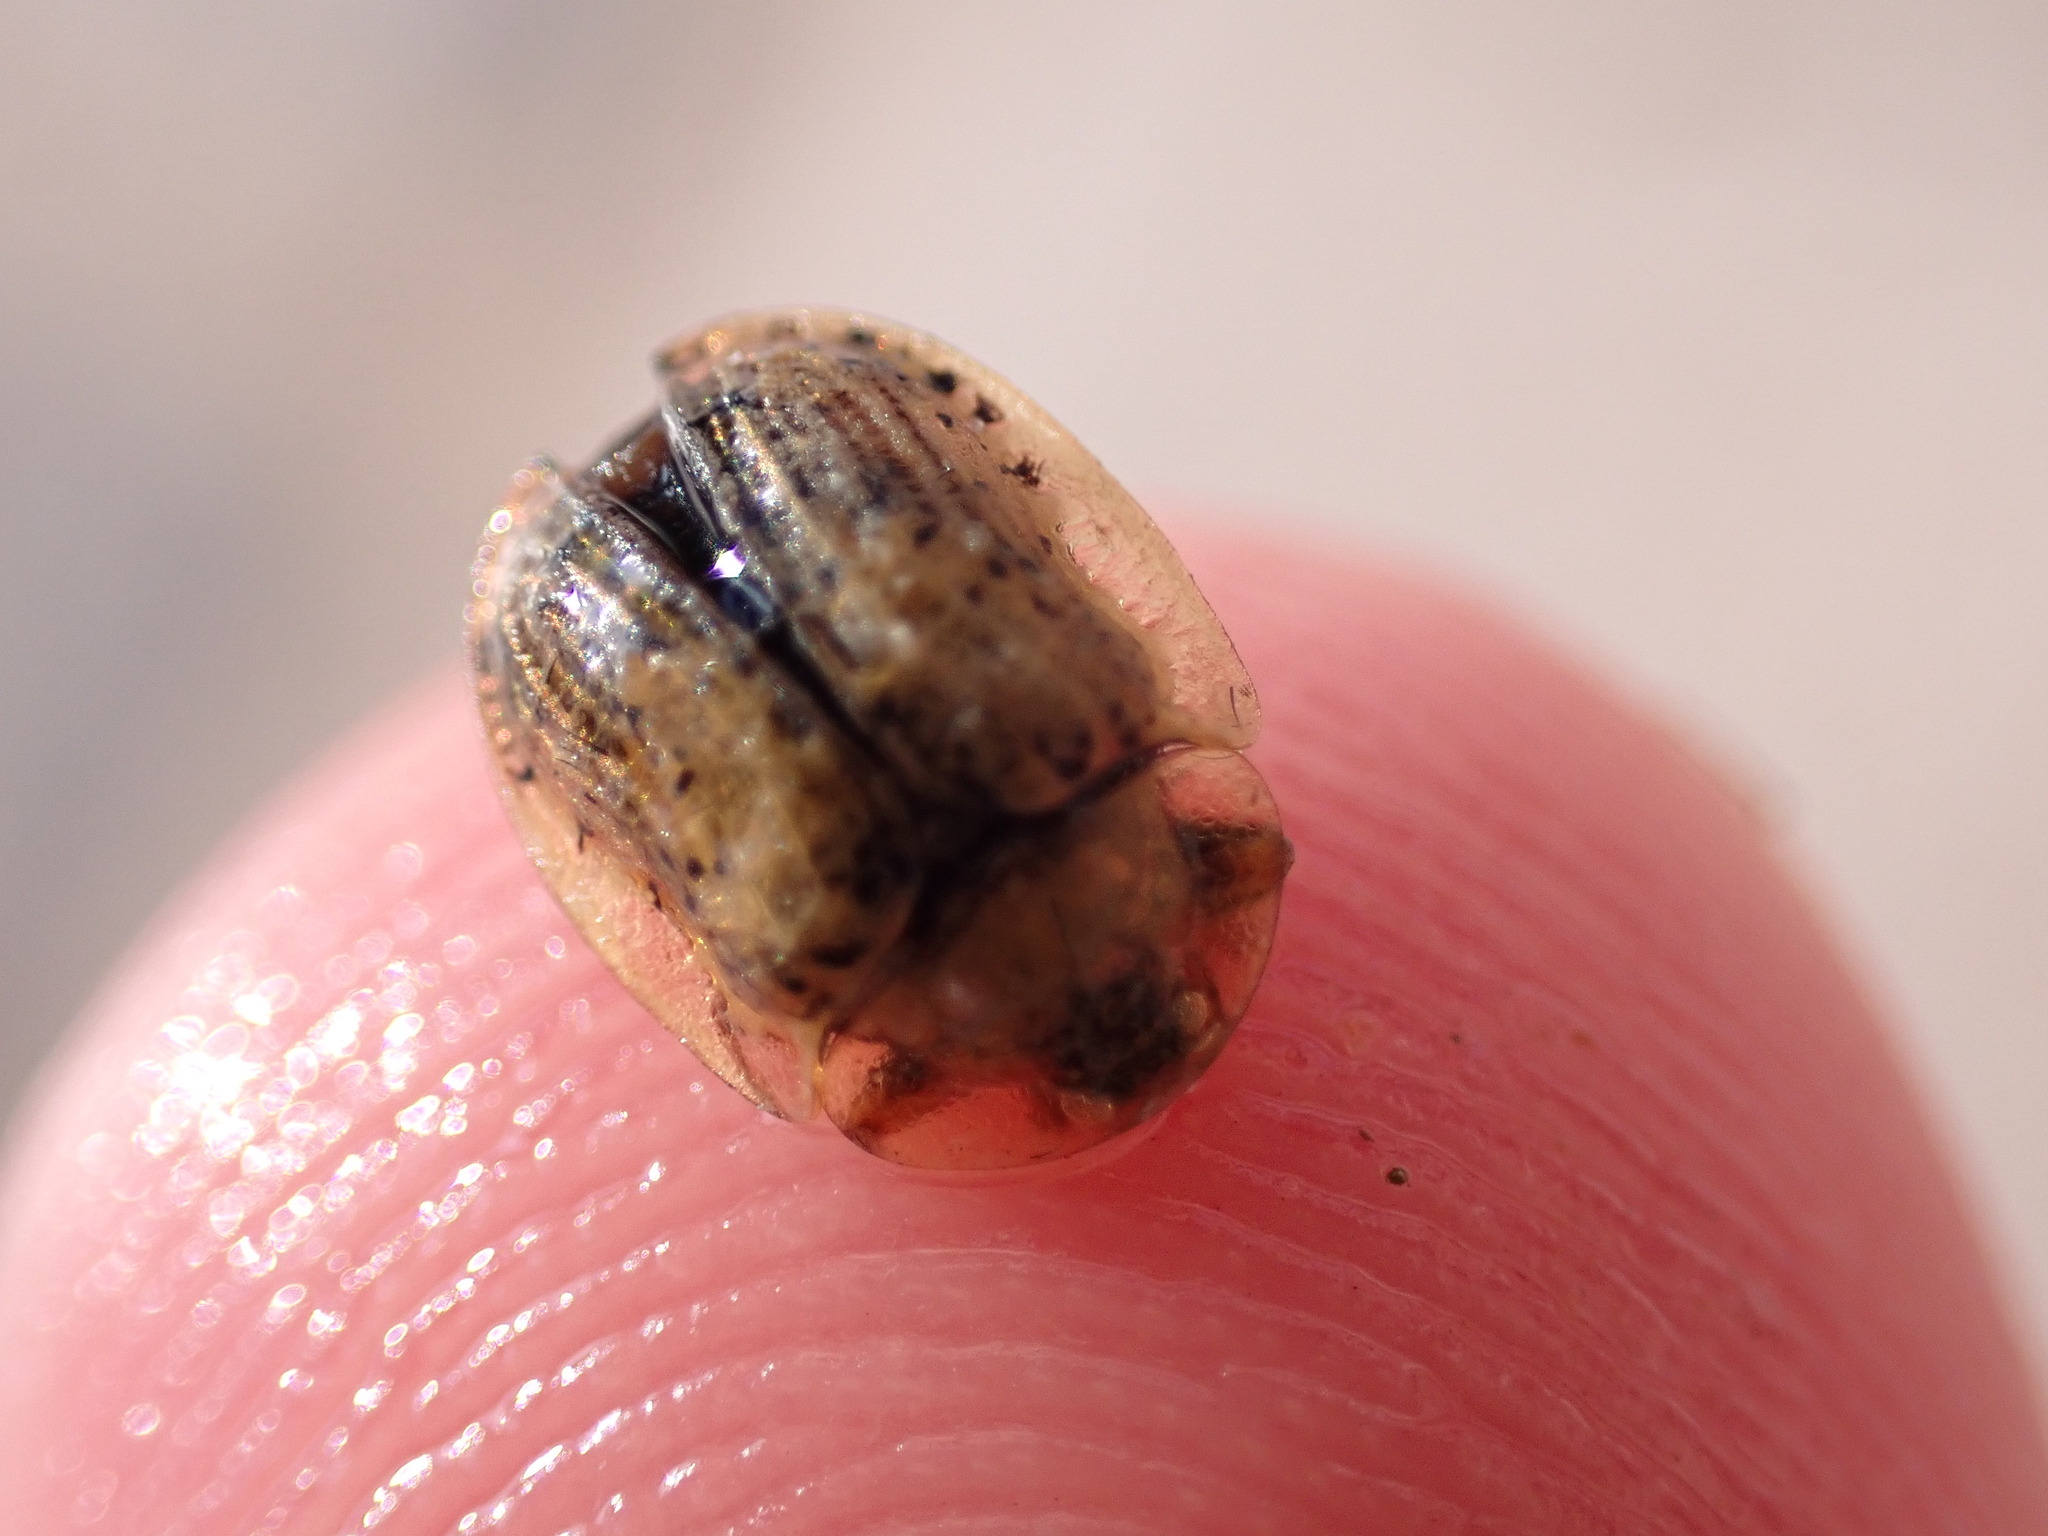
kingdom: Animalia
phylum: Arthropoda
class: Insecta
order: Coleoptera
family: Chrysomelidae
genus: Cassida
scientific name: Cassida nebulosa
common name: Beet tortoise beetle
